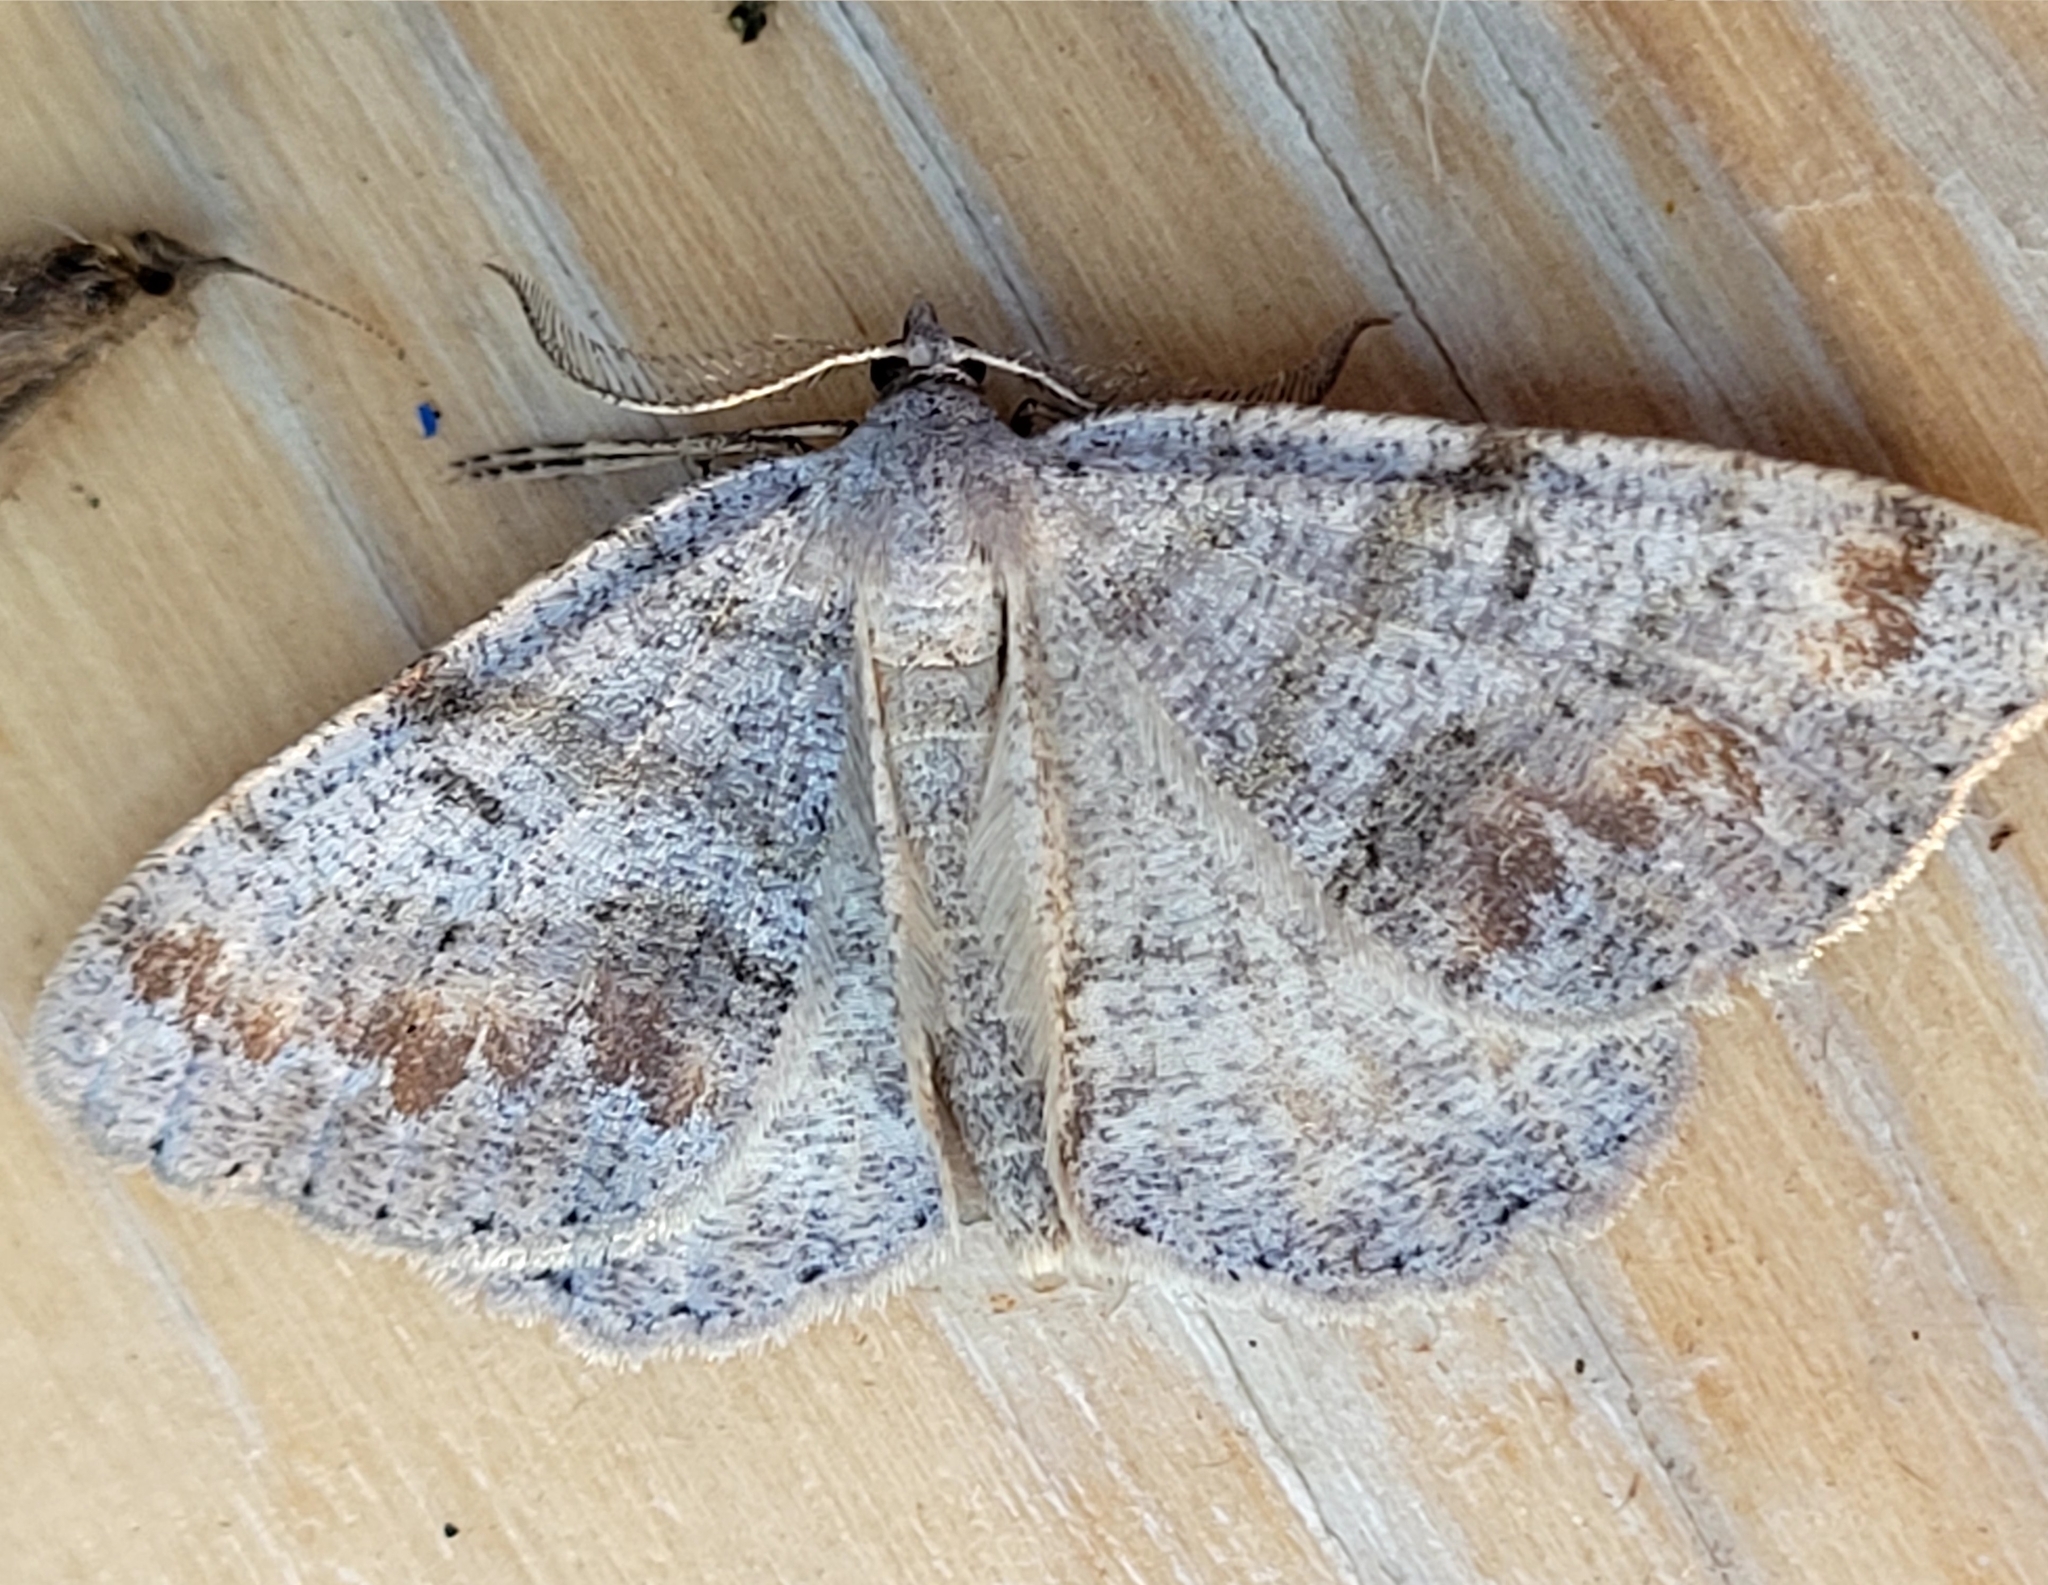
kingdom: Animalia
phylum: Arthropoda
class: Insecta
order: Lepidoptera
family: Geometridae
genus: Macaria
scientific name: Macaria loricaria
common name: False bruce spanworm
